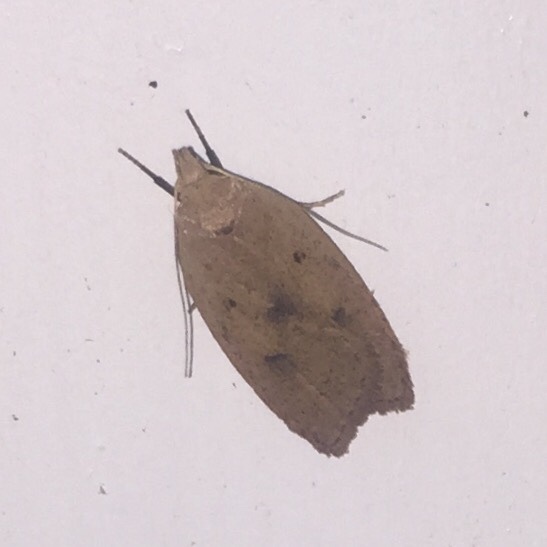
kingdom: Animalia
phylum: Arthropoda
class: Insecta
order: Lepidoptera
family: Peleopodidae
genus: Machimia
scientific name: Machimia tentoriferella
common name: Gold-striped leaftier moth
